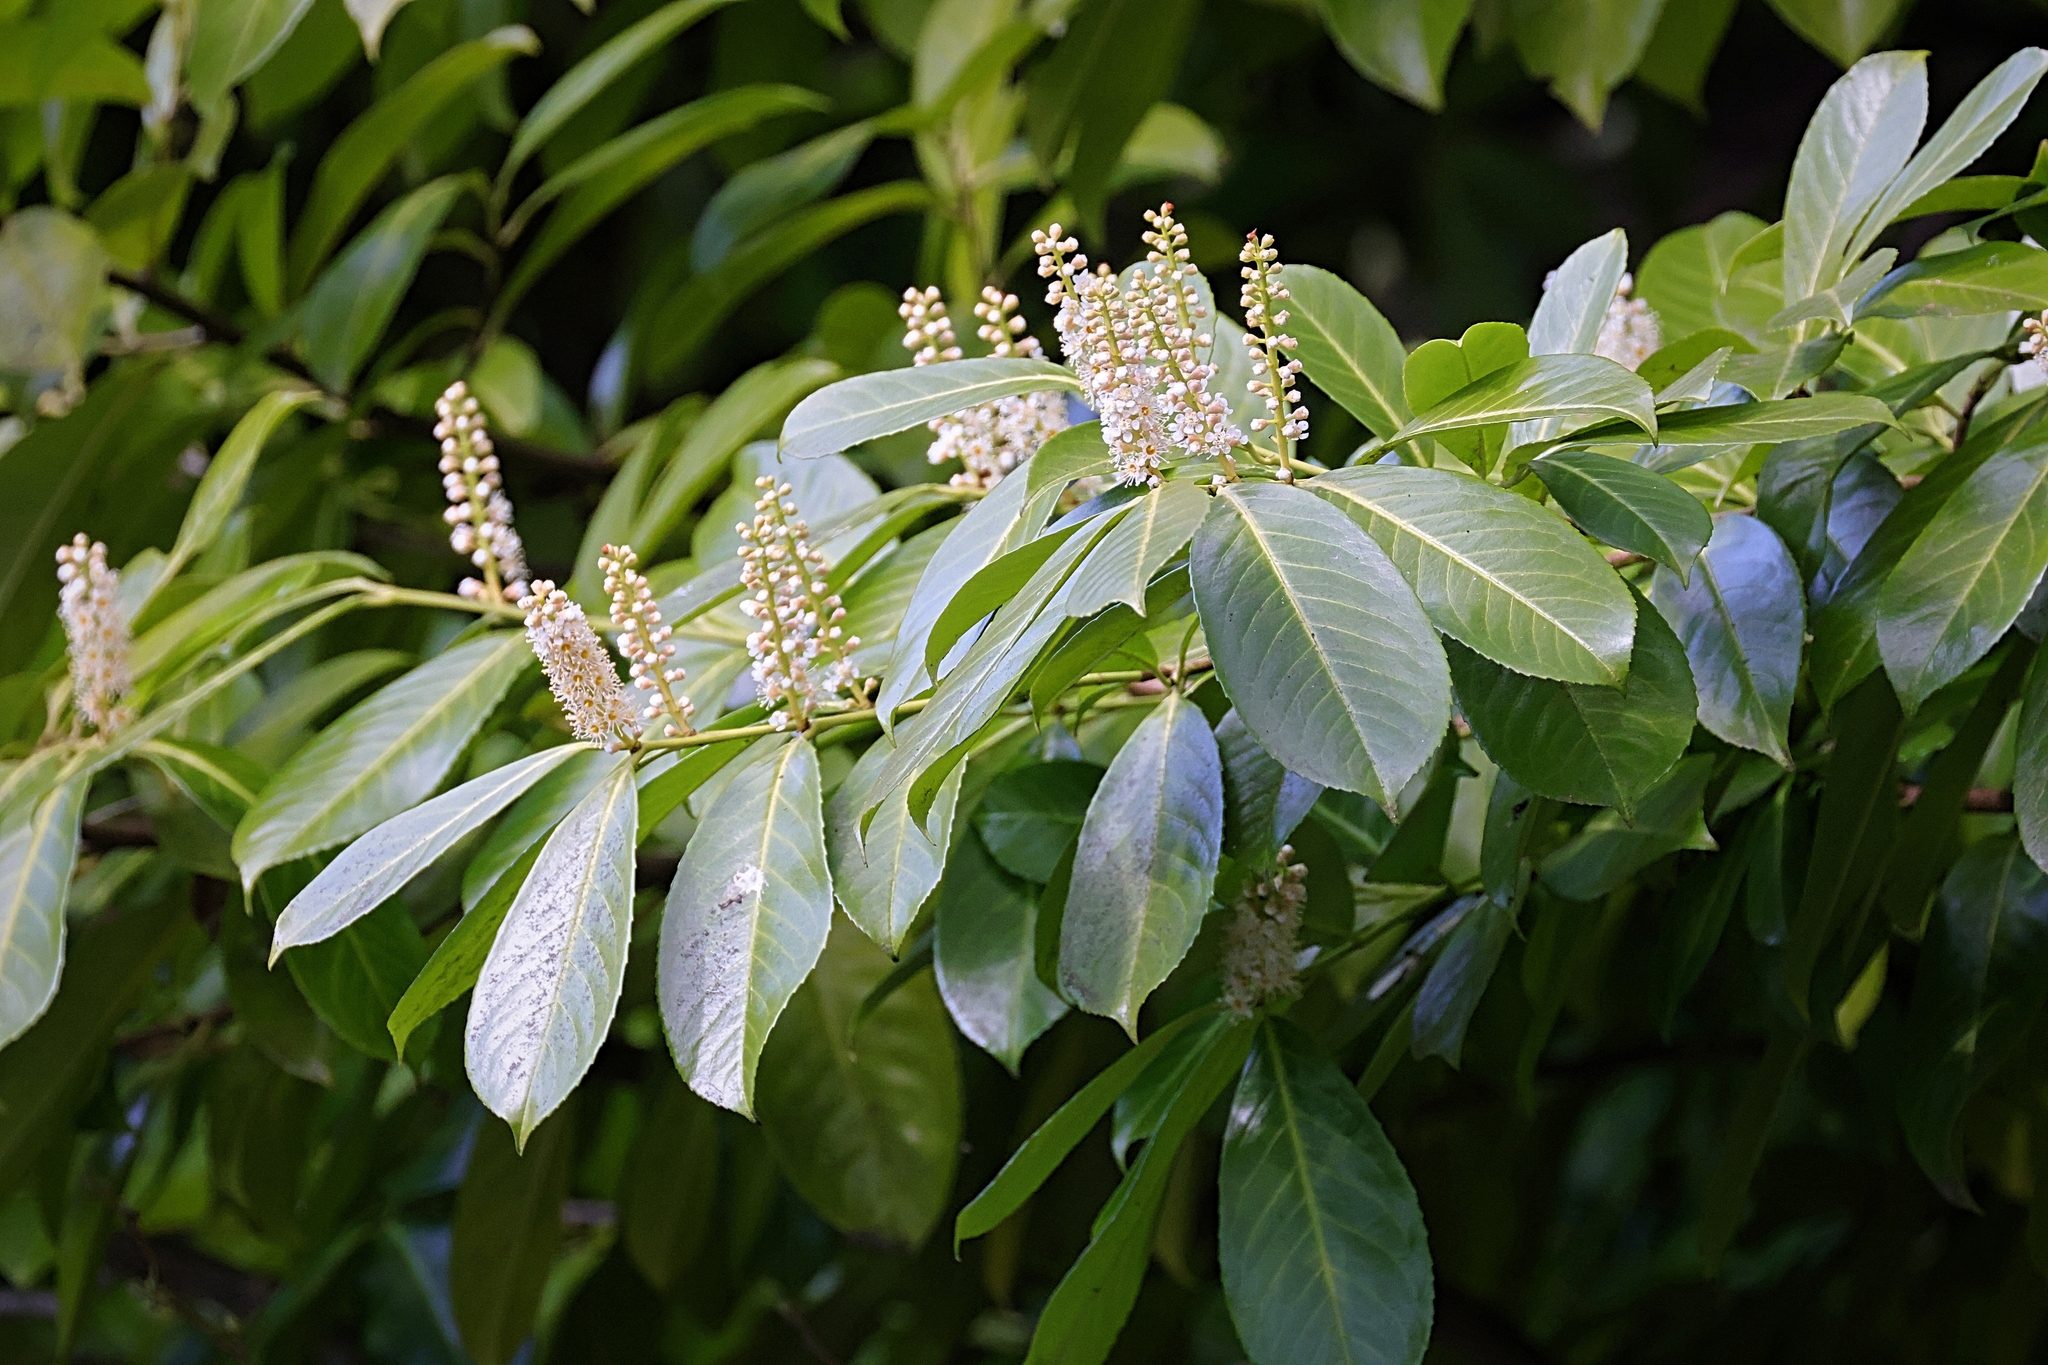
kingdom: Plantae
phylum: Tracheophyta
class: Magnoliopsida
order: Rosales
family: Rosaceae
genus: Prunus
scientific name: Prunus laurocerasus
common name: Cherry laurel
